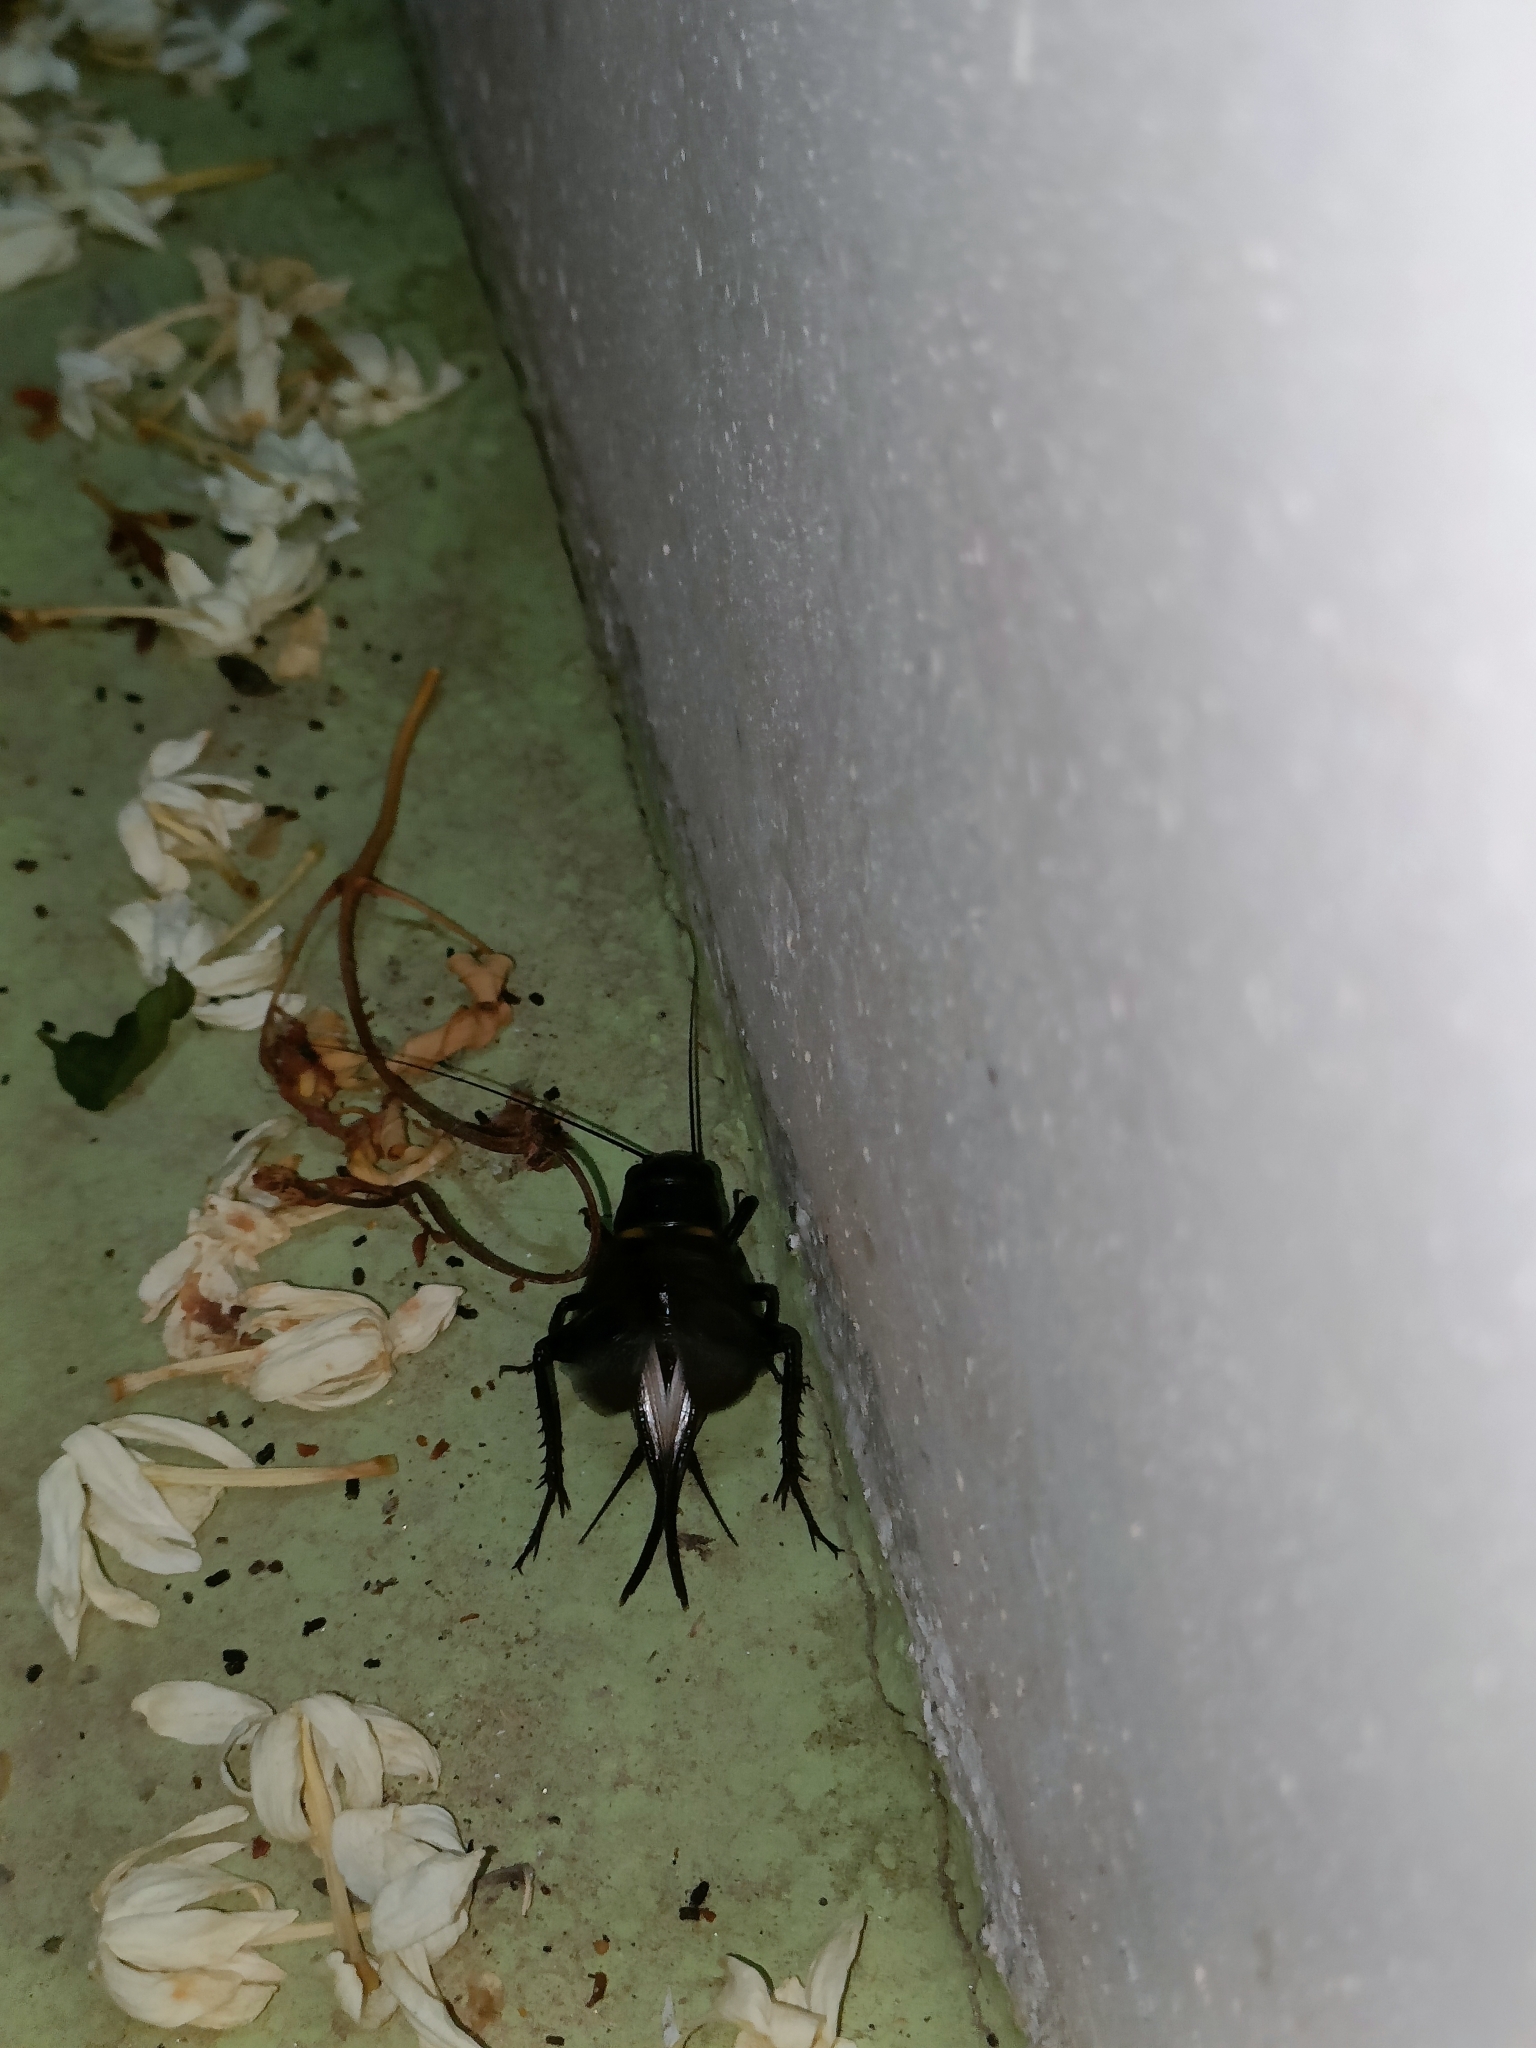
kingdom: Animalia
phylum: Arthropoda
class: Insecta
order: Orthoptera
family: Gryllidae
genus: Gryllus
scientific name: Gryllus bimaculatus
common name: Two-spotted cricket
